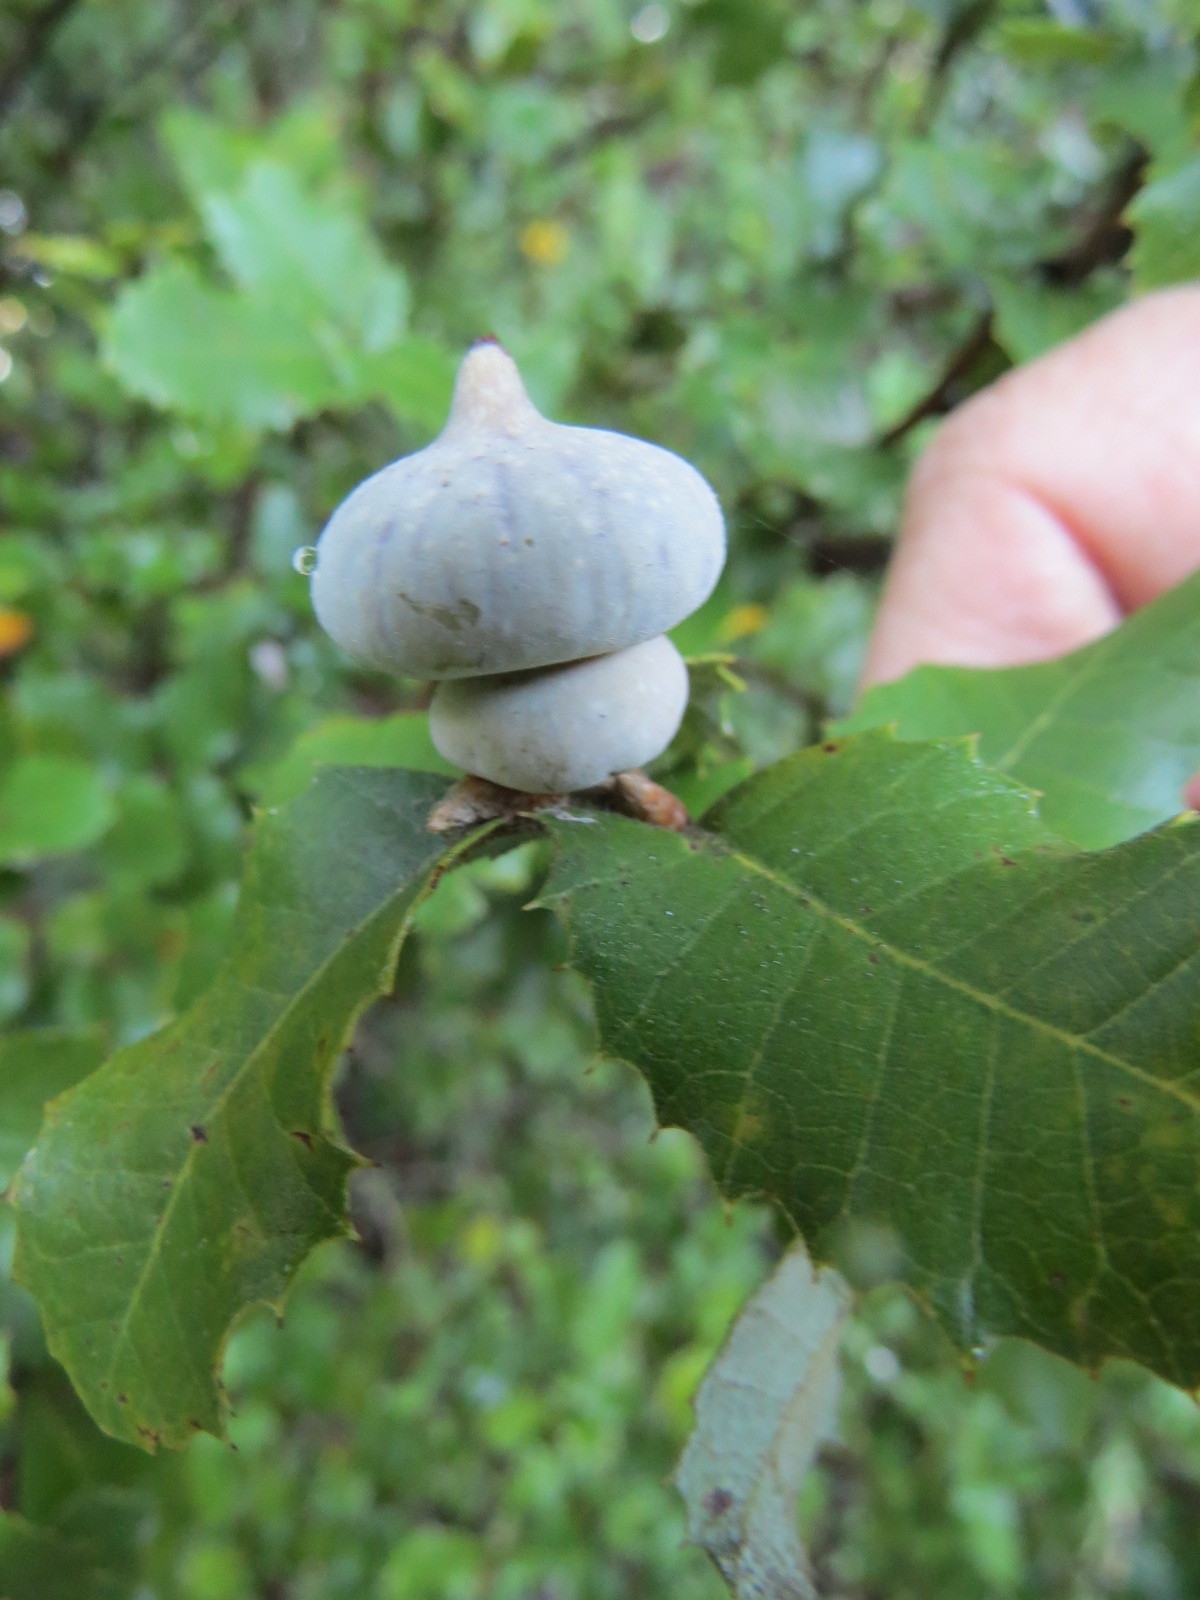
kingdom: Animalia
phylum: Arthropoda
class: Insecta
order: Hymenoptera
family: Cynipidae
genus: Heteroecus
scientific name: Heteroecus
